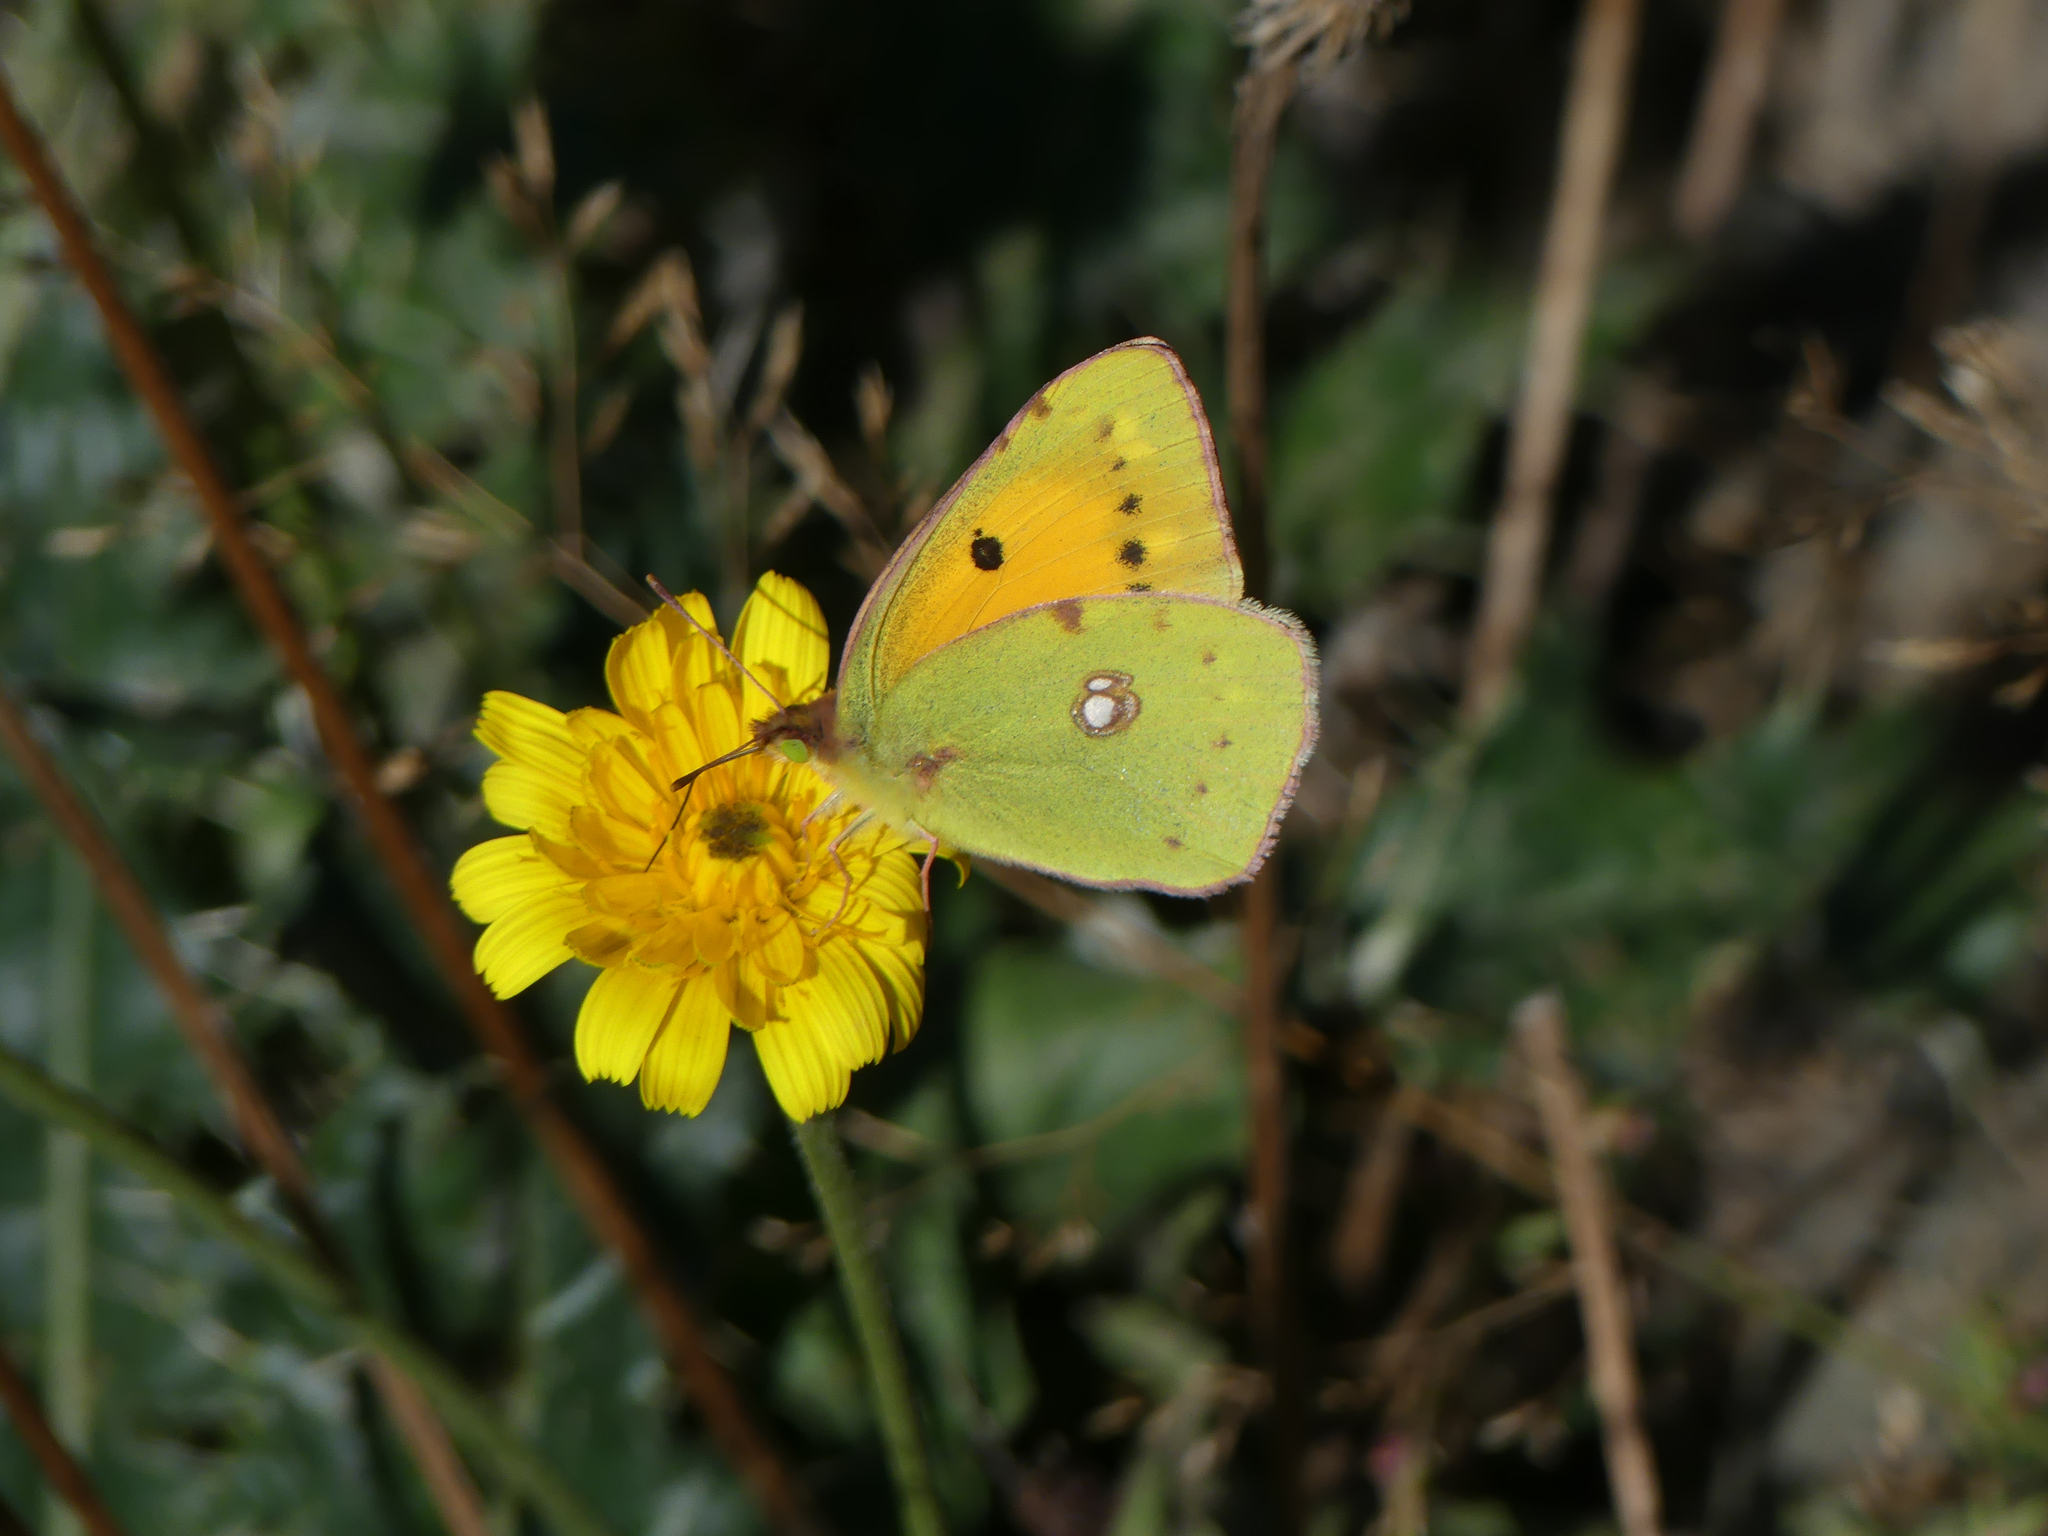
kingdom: Animalia
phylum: Arthropoda
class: Insecta
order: Lepidoptera
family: Pieridae
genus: Colias
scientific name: Colias croceus
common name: Clouded yellow
